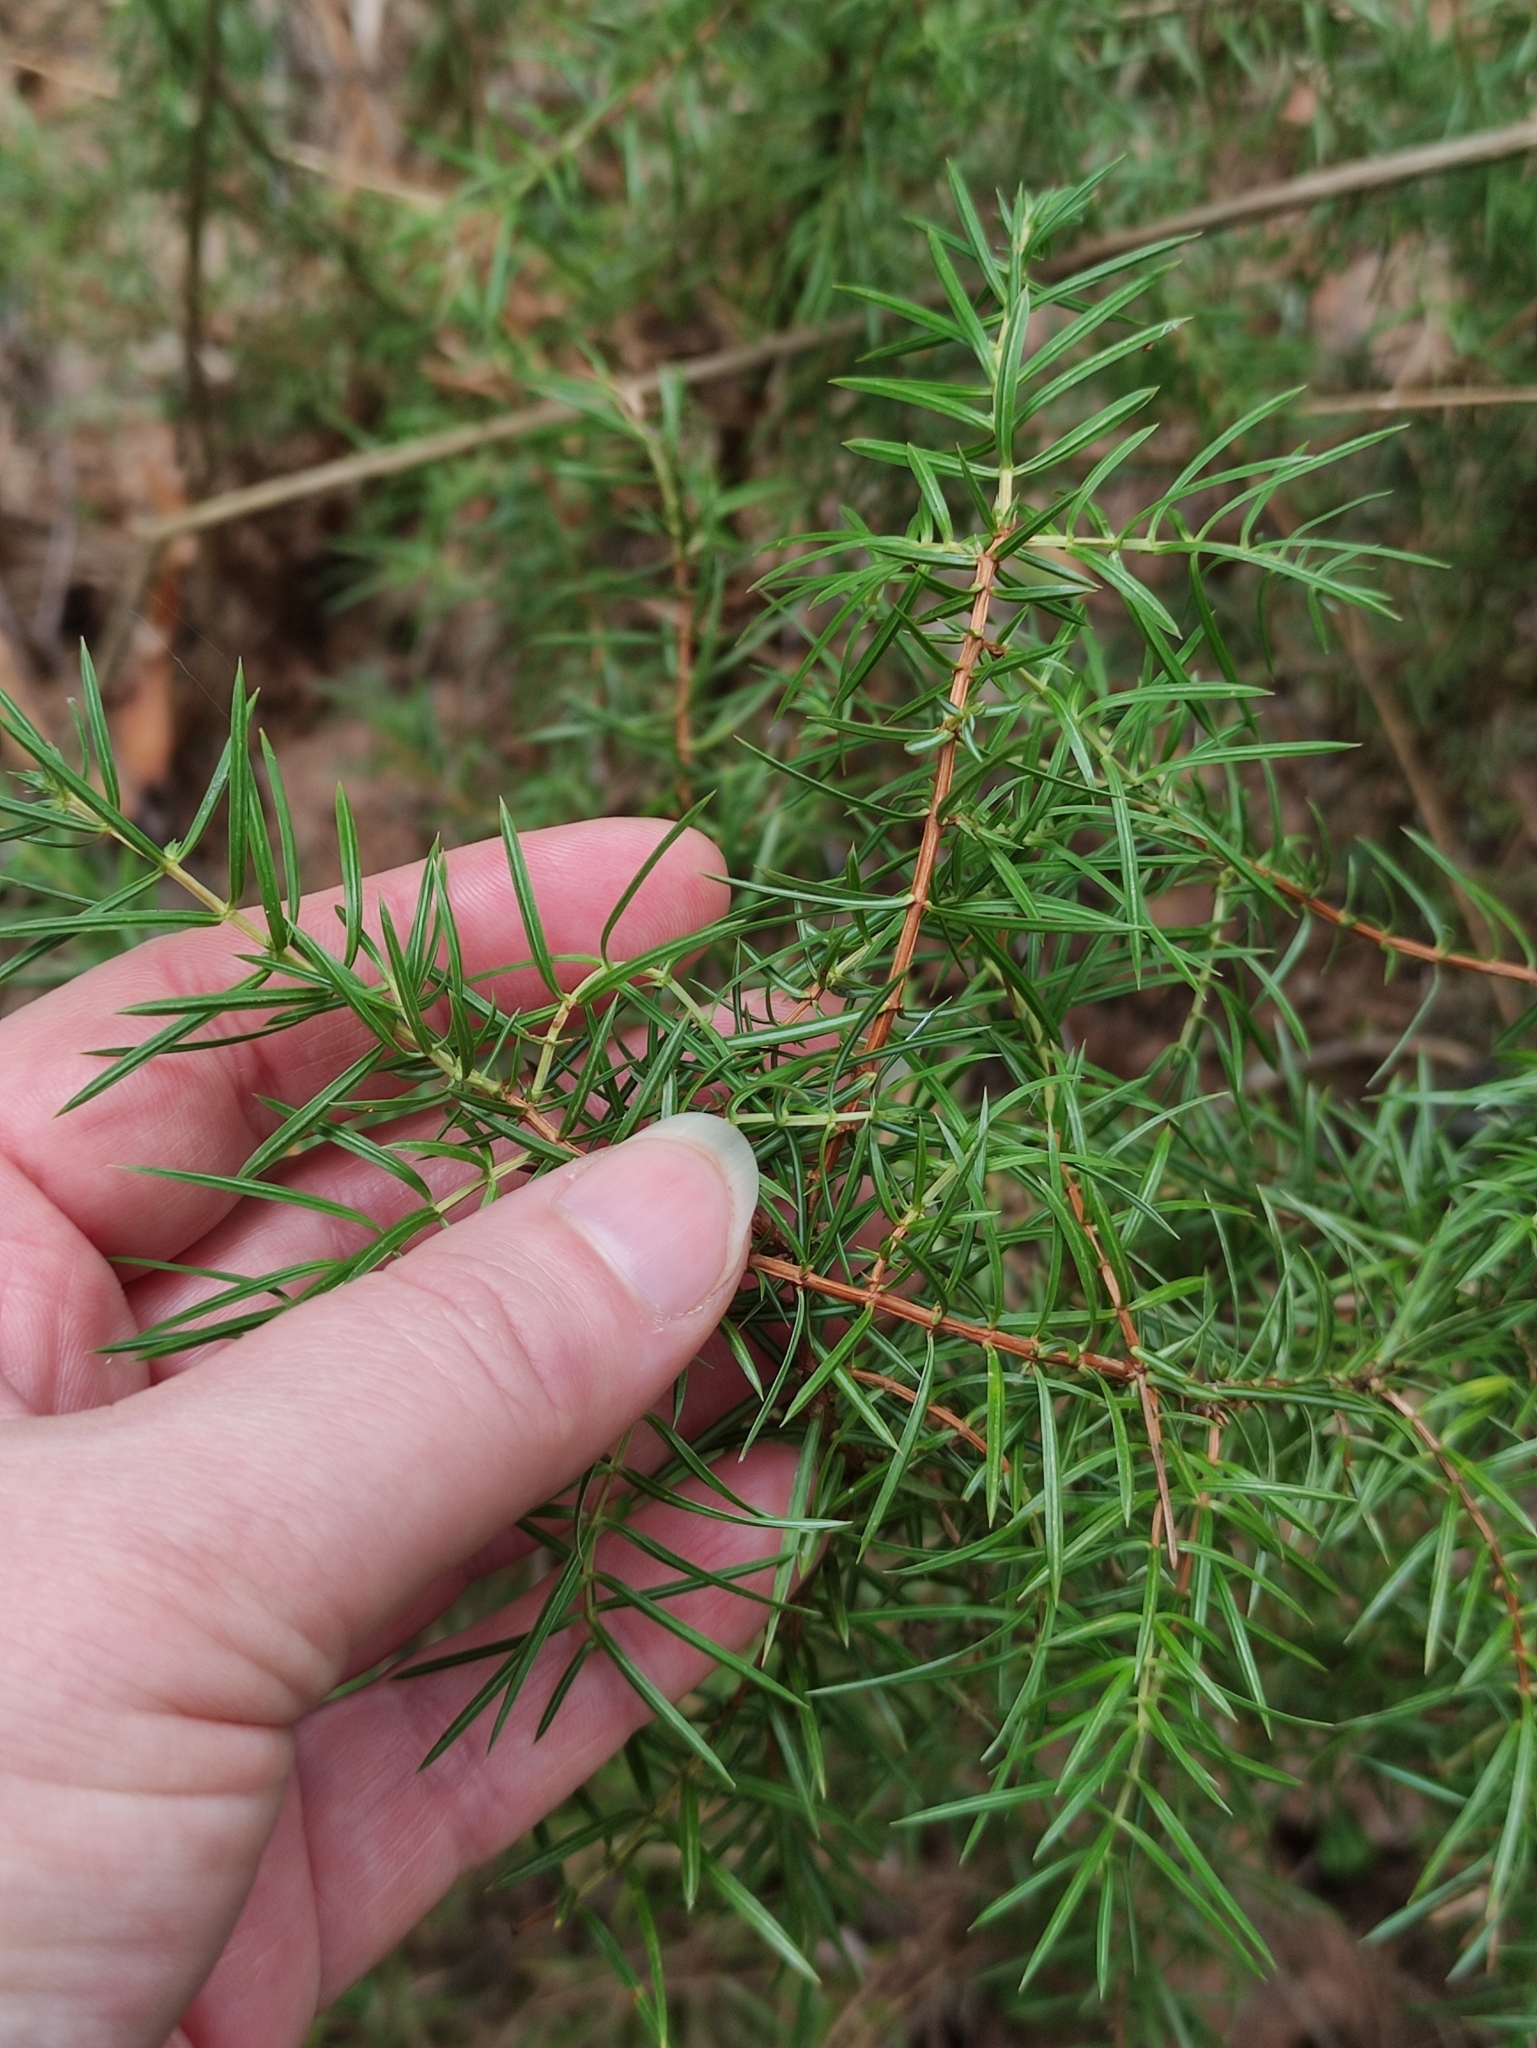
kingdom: Plantae
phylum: Tracheophyta
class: Pinopsida
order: Pinales
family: Cupressaceae
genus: Juniperus
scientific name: Juniperus communis
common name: Common juniper
